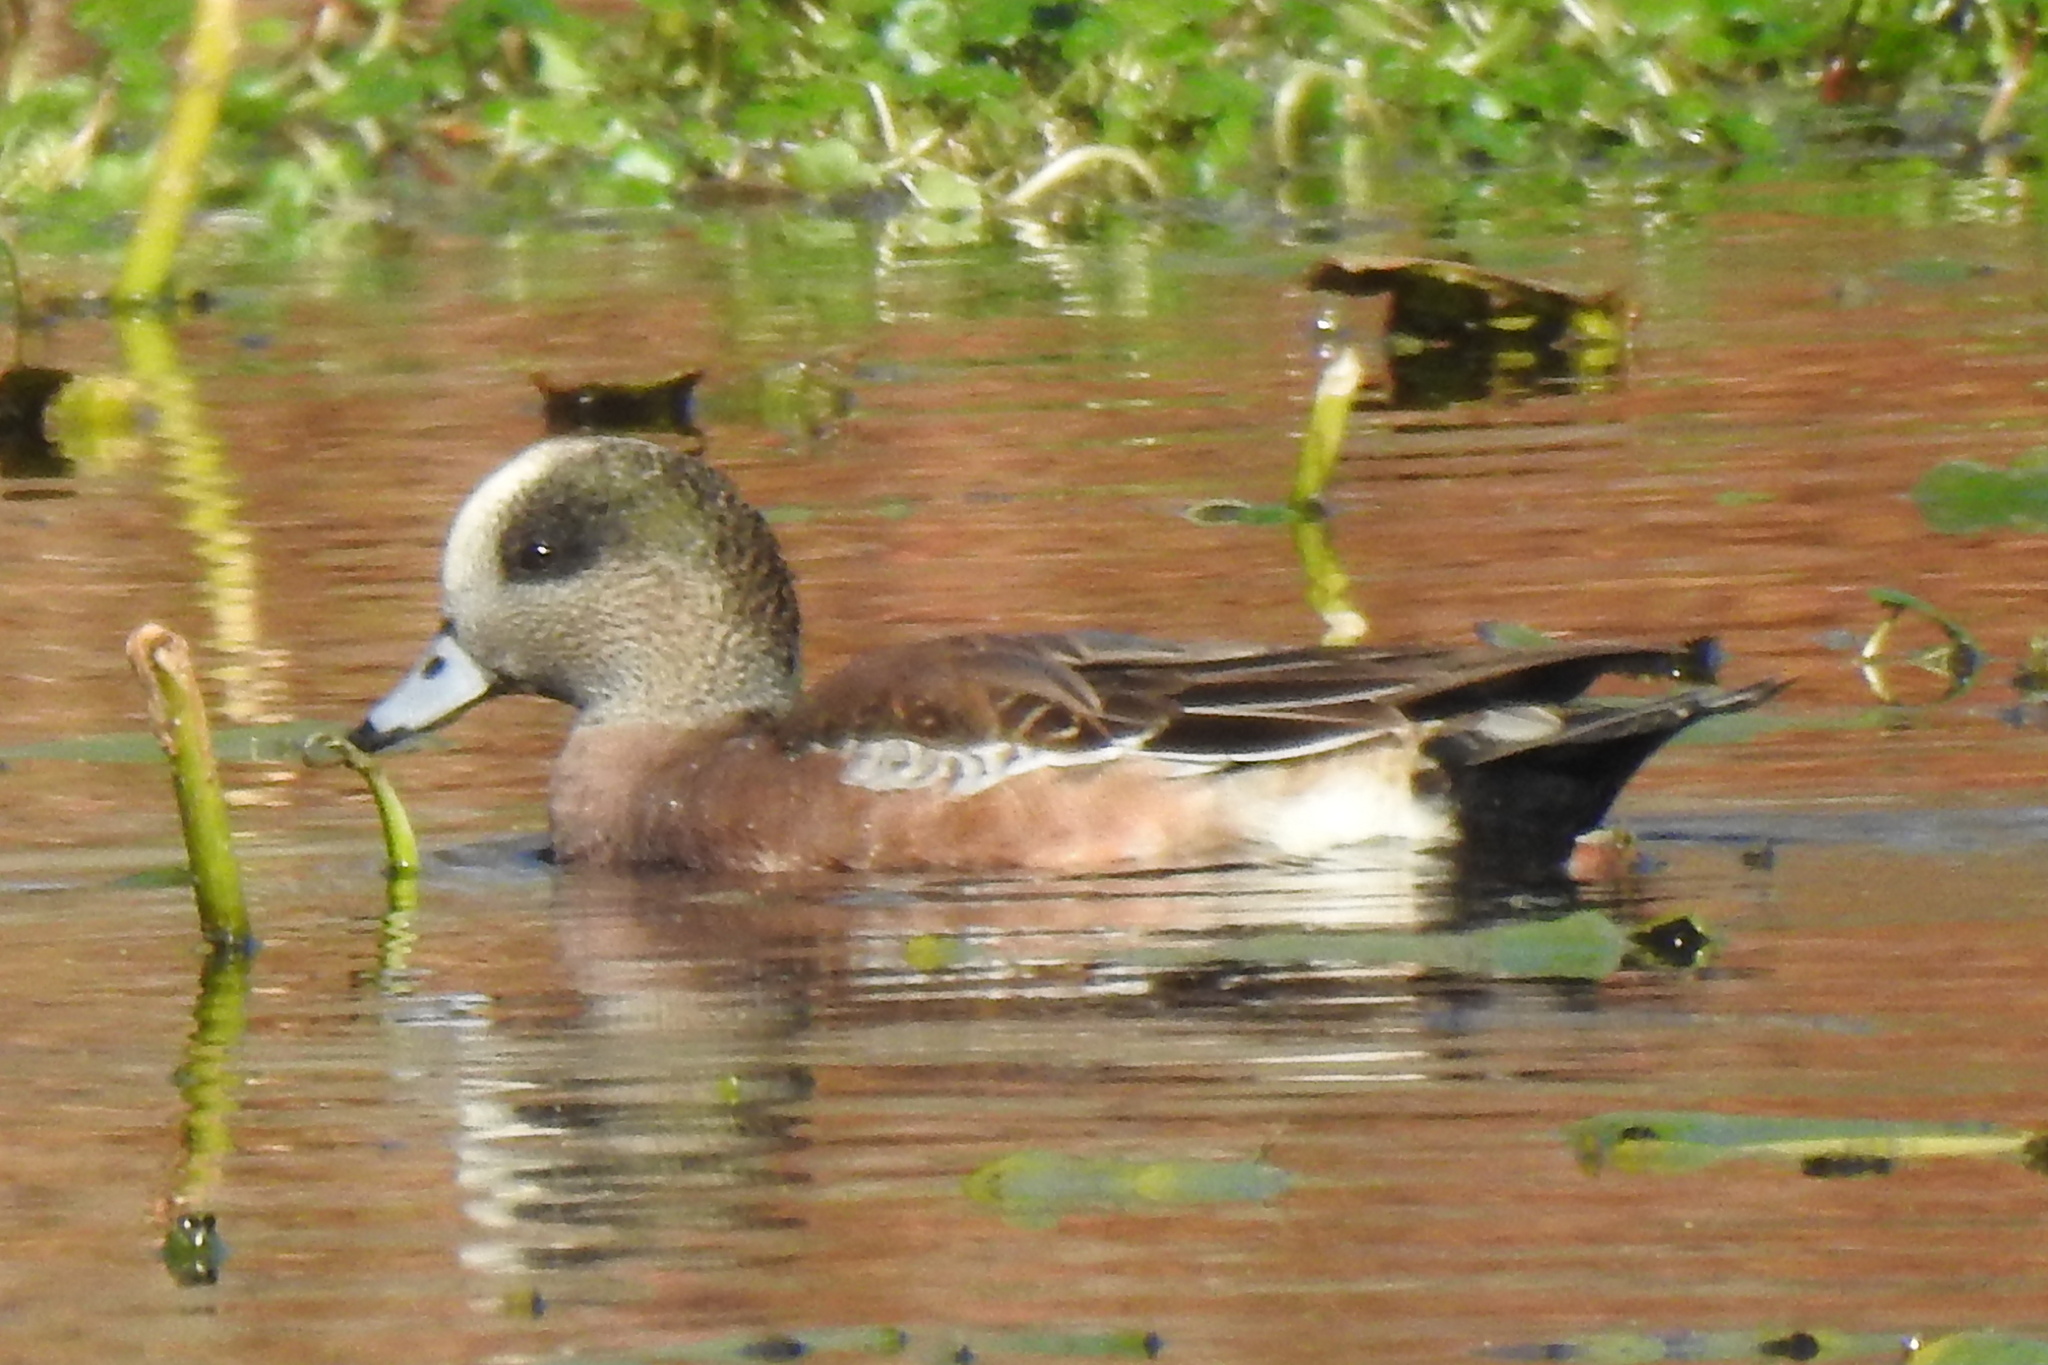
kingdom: Animalia
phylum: Chordata
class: Aves
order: Anseriformes
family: Anatidae
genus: Mareca
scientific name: Mareca americana
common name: American wigeon
